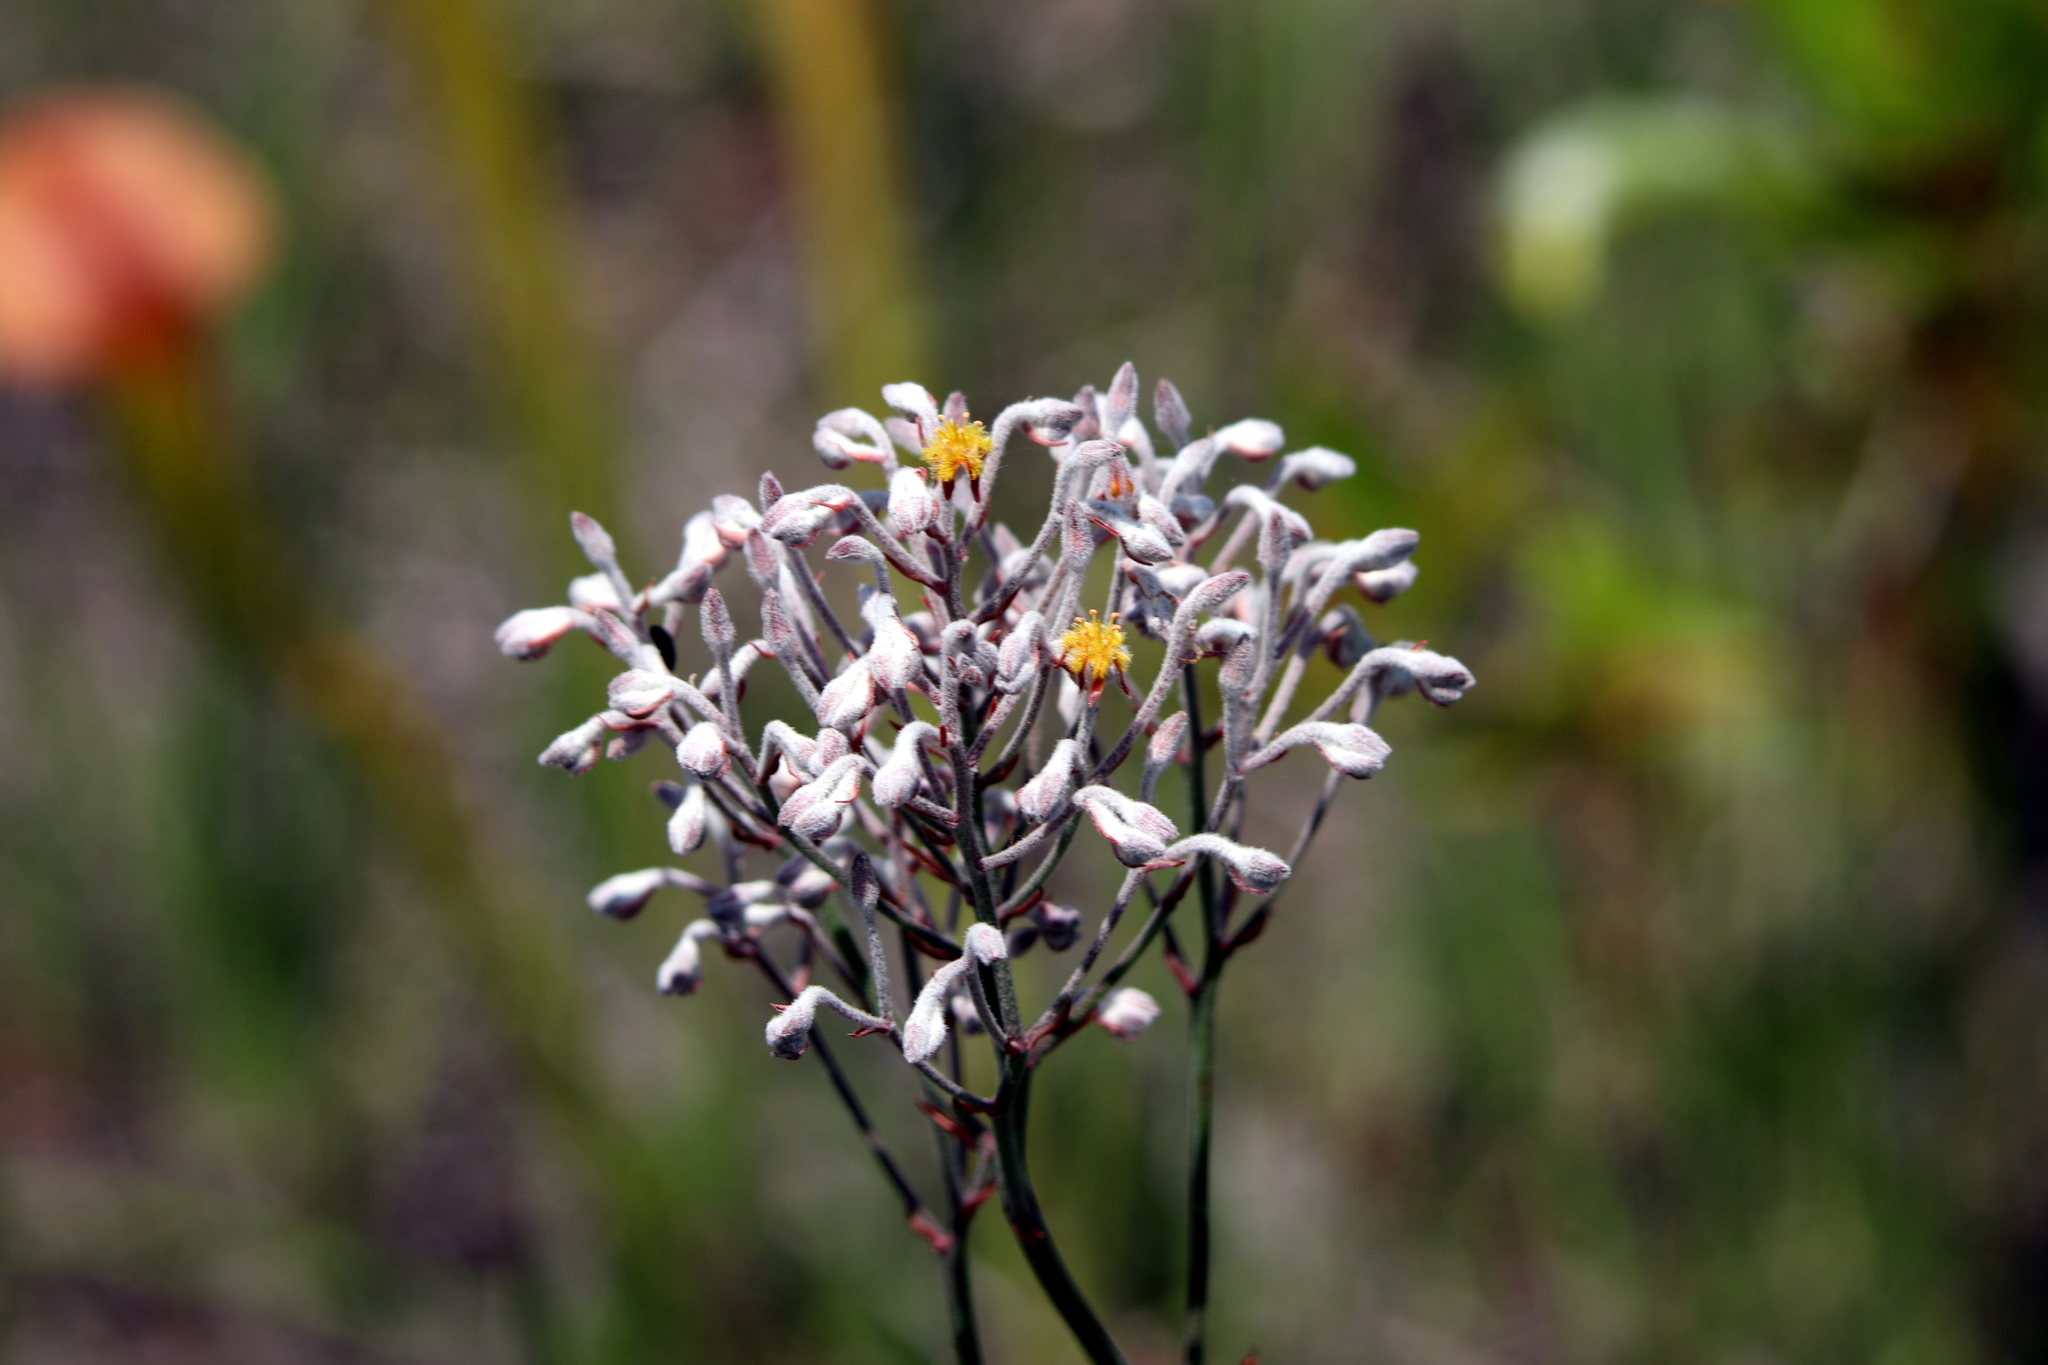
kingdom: Plantae
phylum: Tracheophyta
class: Liliopsida
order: Dioscoreales
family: Nartheciaceae
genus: Lophiola
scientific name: Lophiola aurea
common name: Golden-crest
